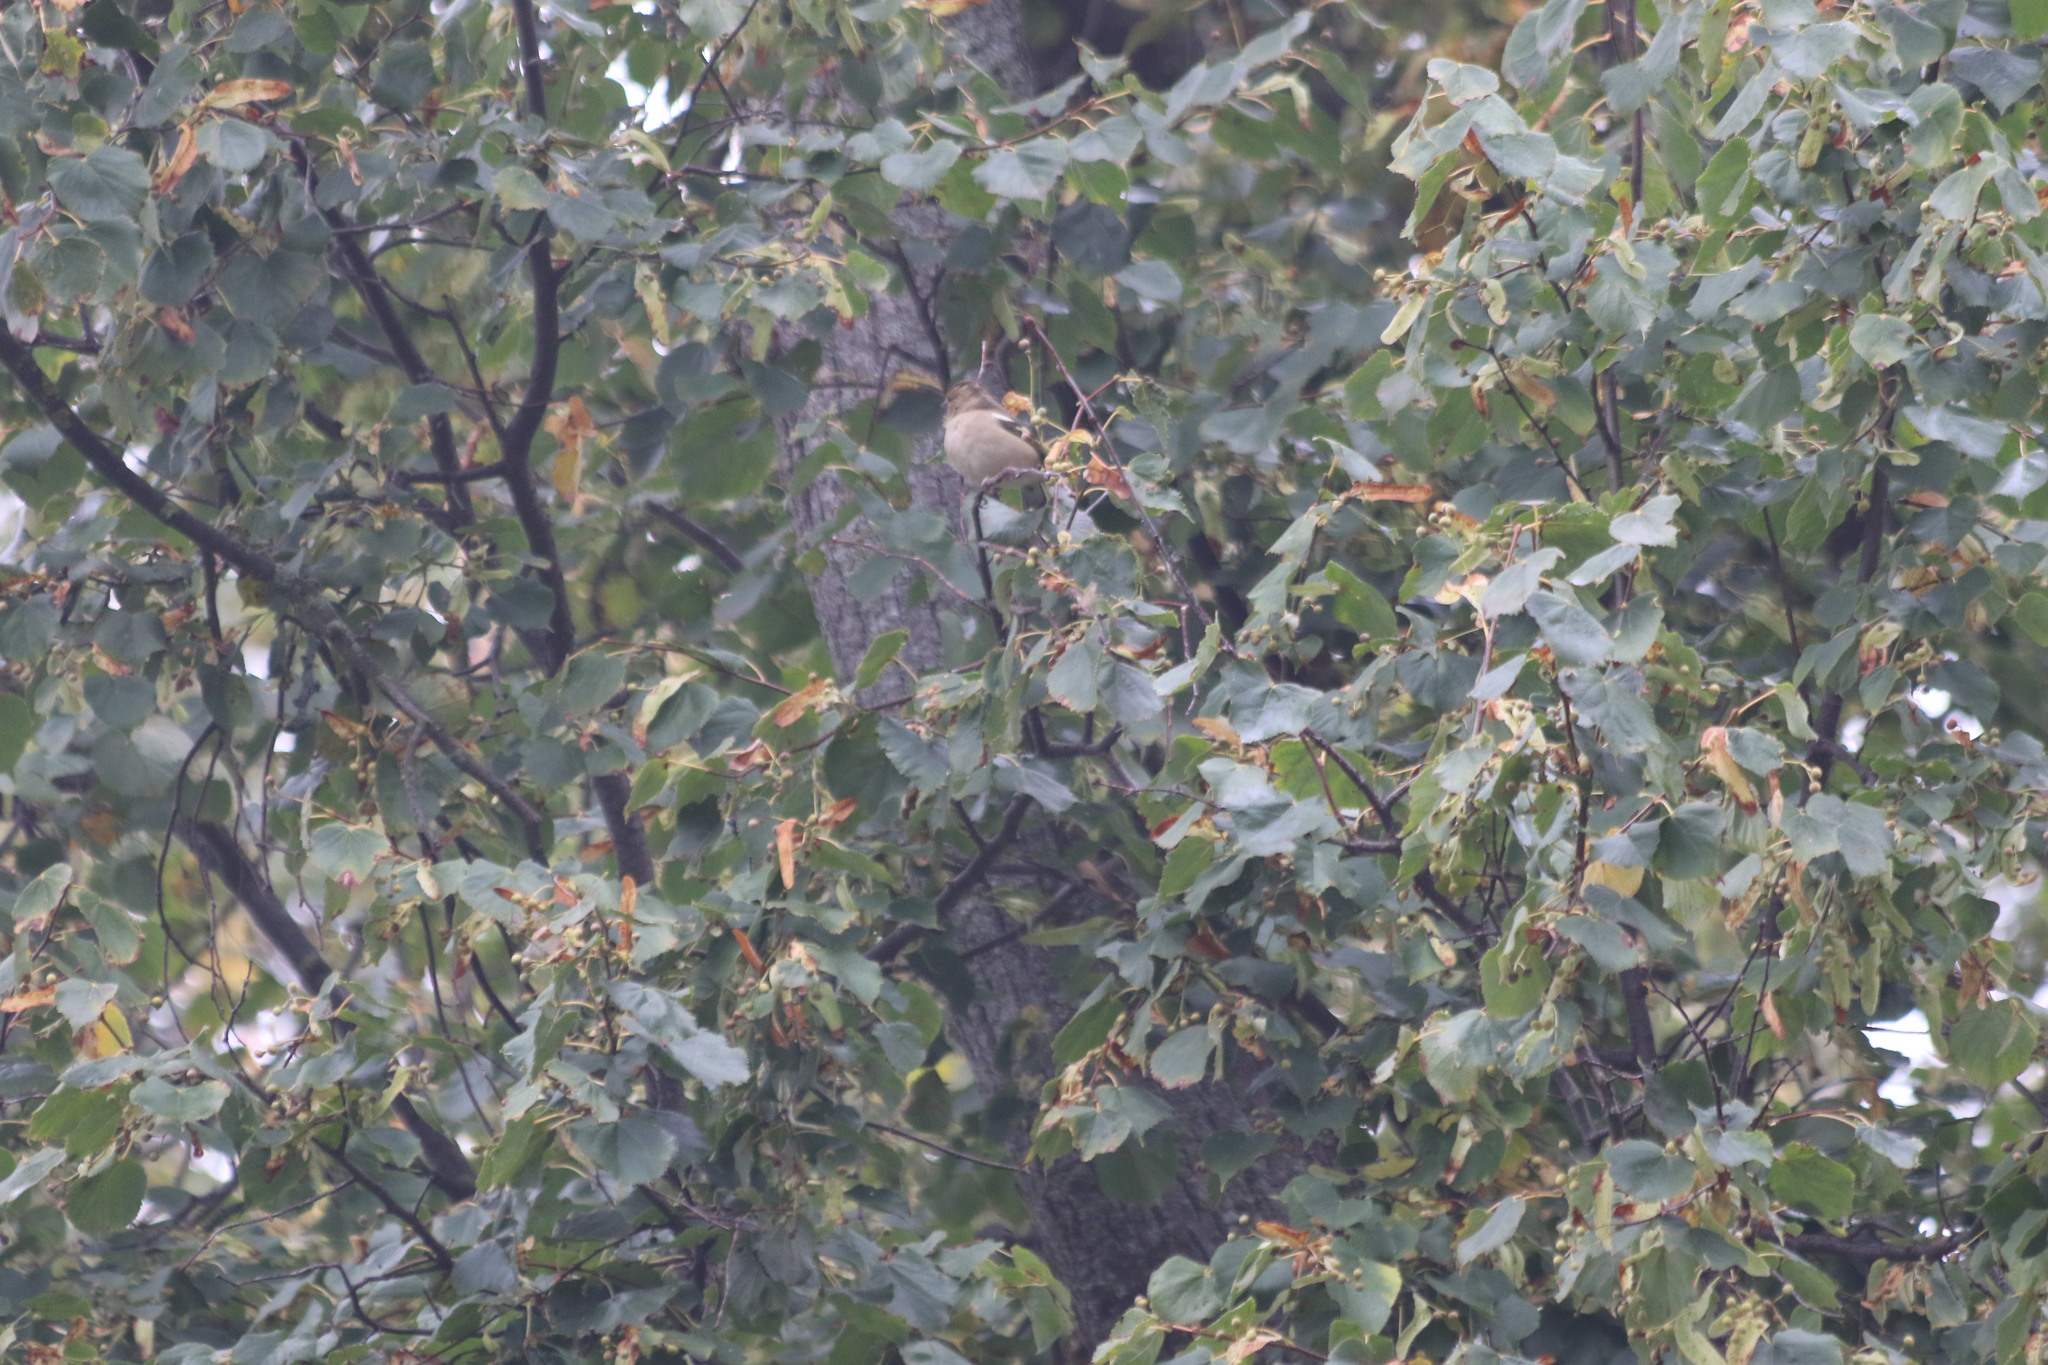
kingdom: Animalia
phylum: Chordata
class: Aves
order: Passeriformes
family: Fringillidae
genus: Fringilla
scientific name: Fringilla coelebs
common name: Common chaffinch
